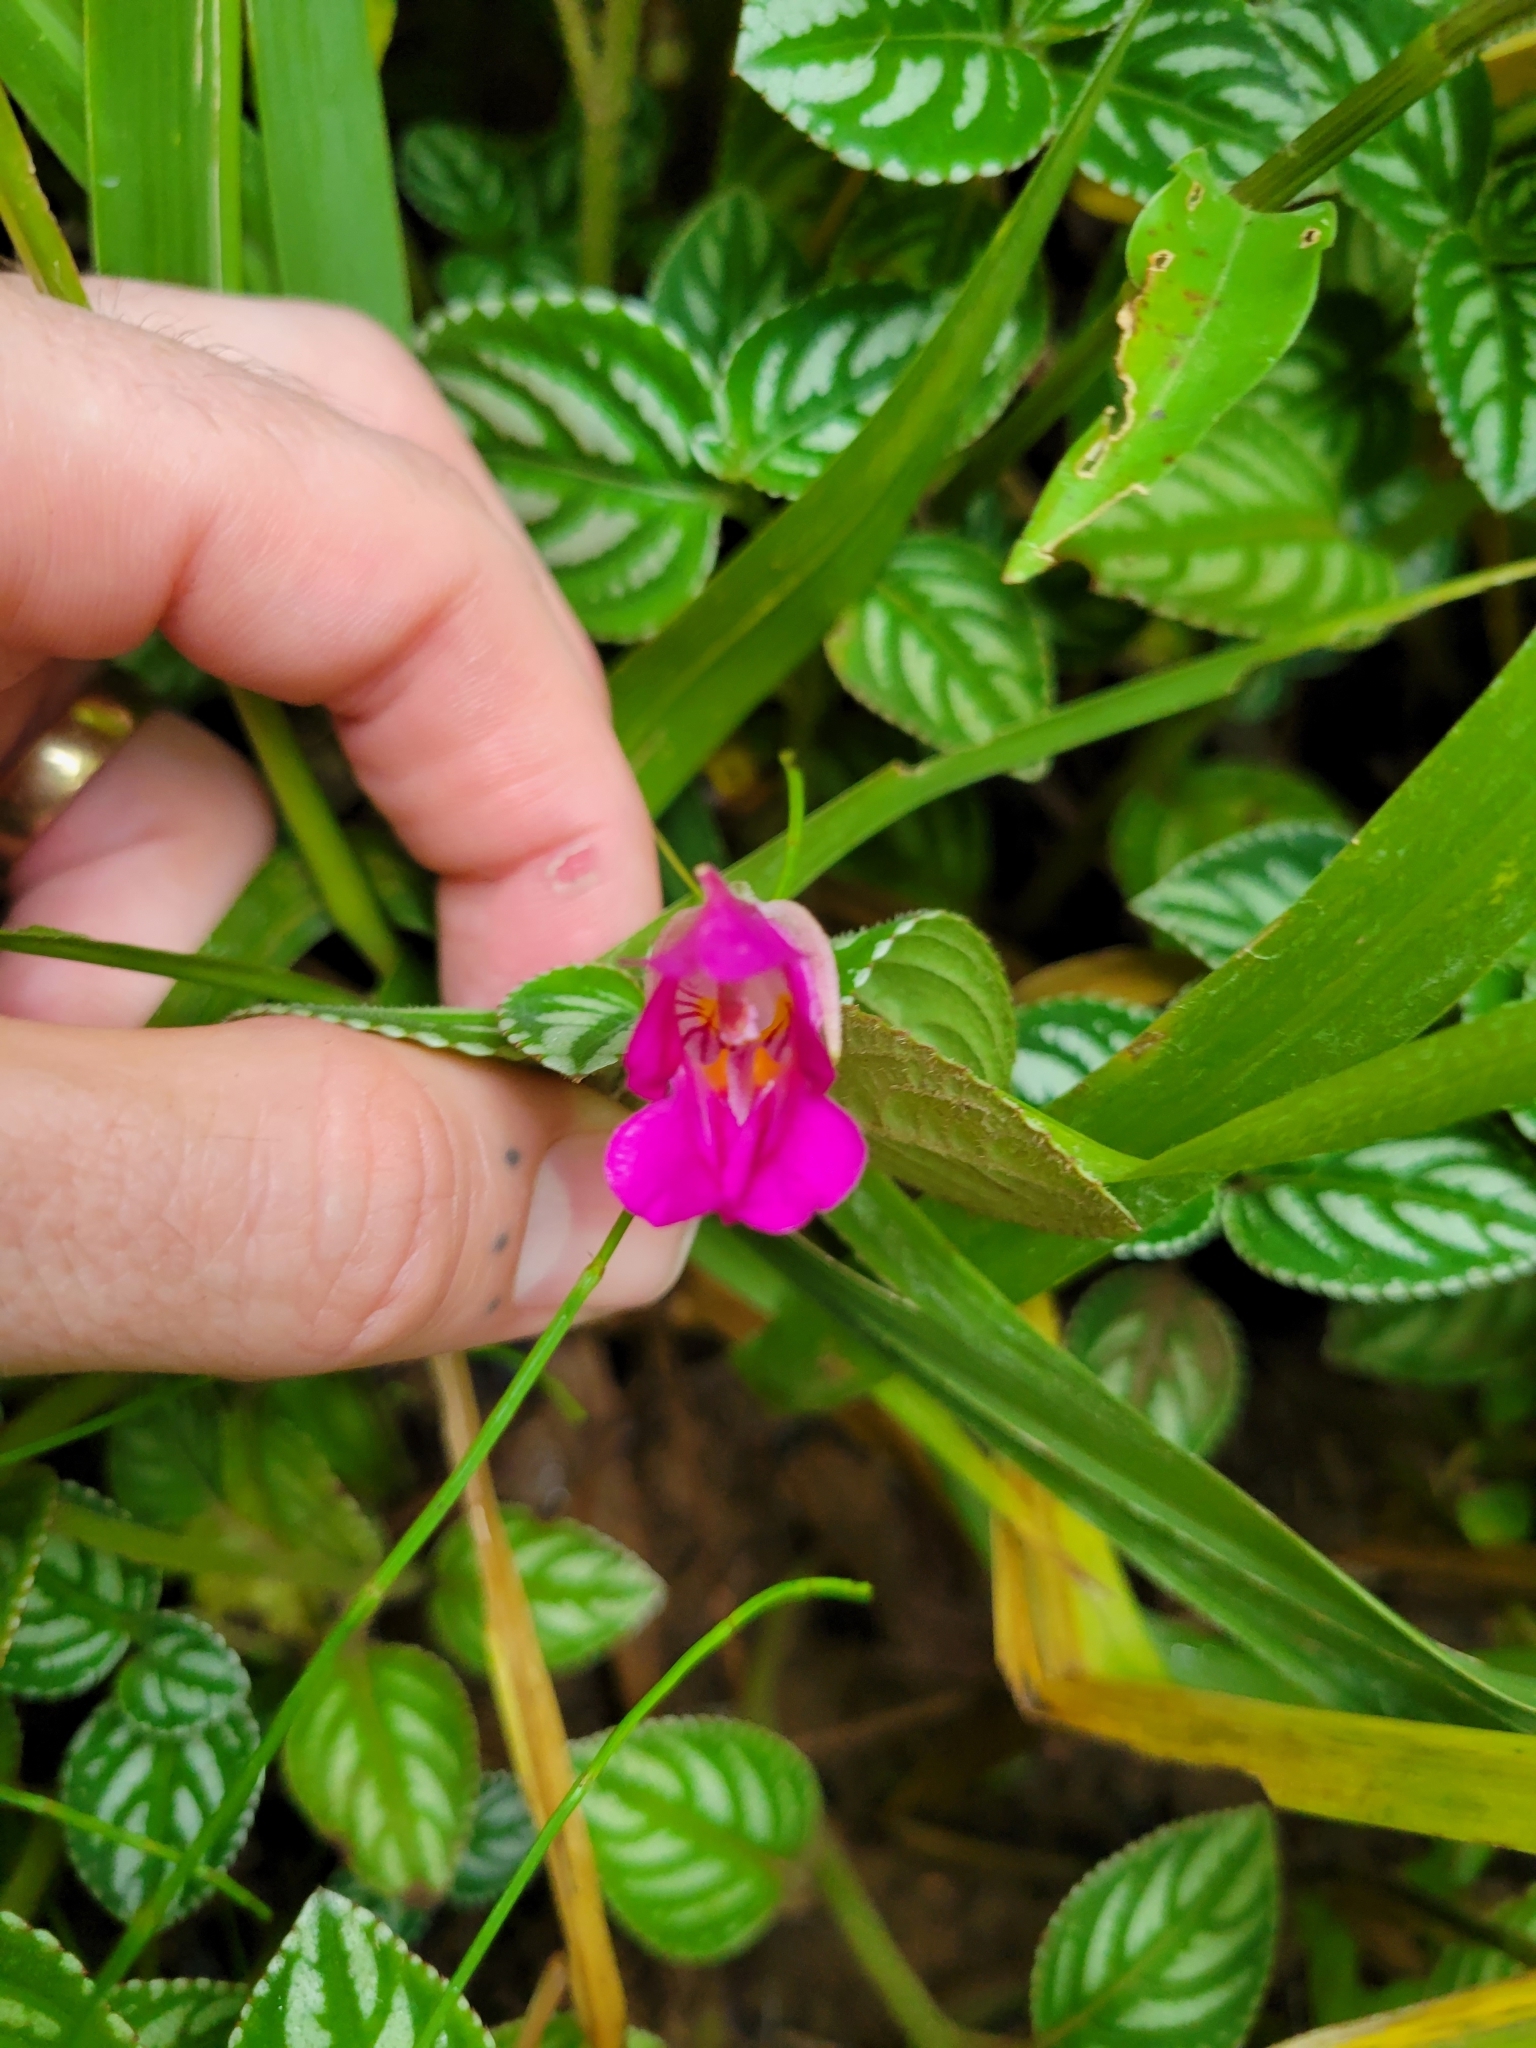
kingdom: Plantae
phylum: Tracheophyta
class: Magnoliopsida
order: Ericales
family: Balsaminaceae
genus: Impatiens
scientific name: Impatiens marianae
